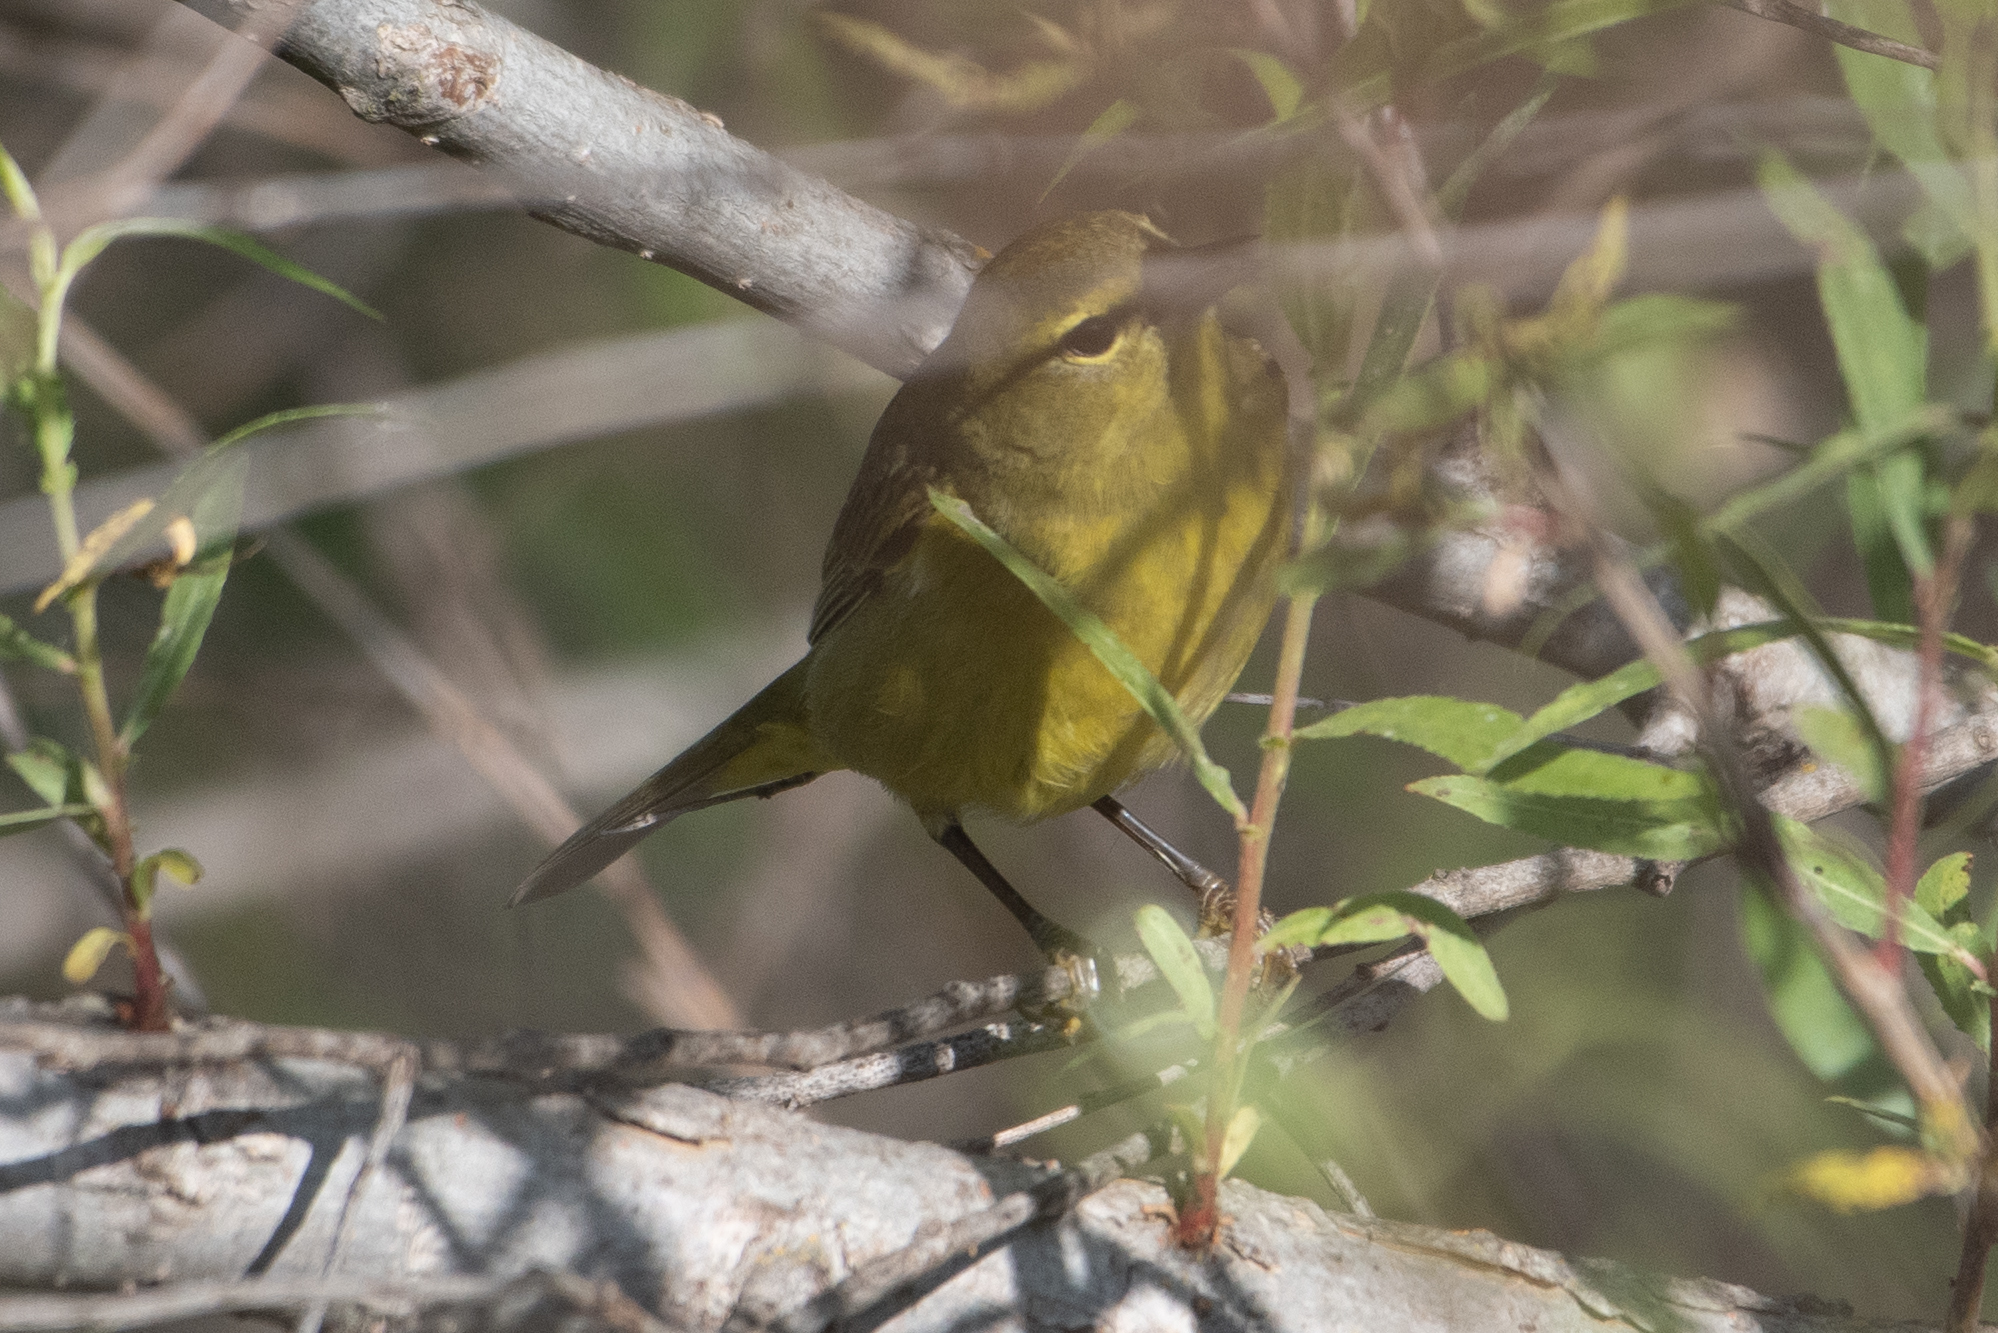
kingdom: Animalia
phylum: Chordata
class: Aves
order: Passeriformes
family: Parulidae
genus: Leiothlypis
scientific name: Leiothlypis celata
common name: Orange-crowned warbler
